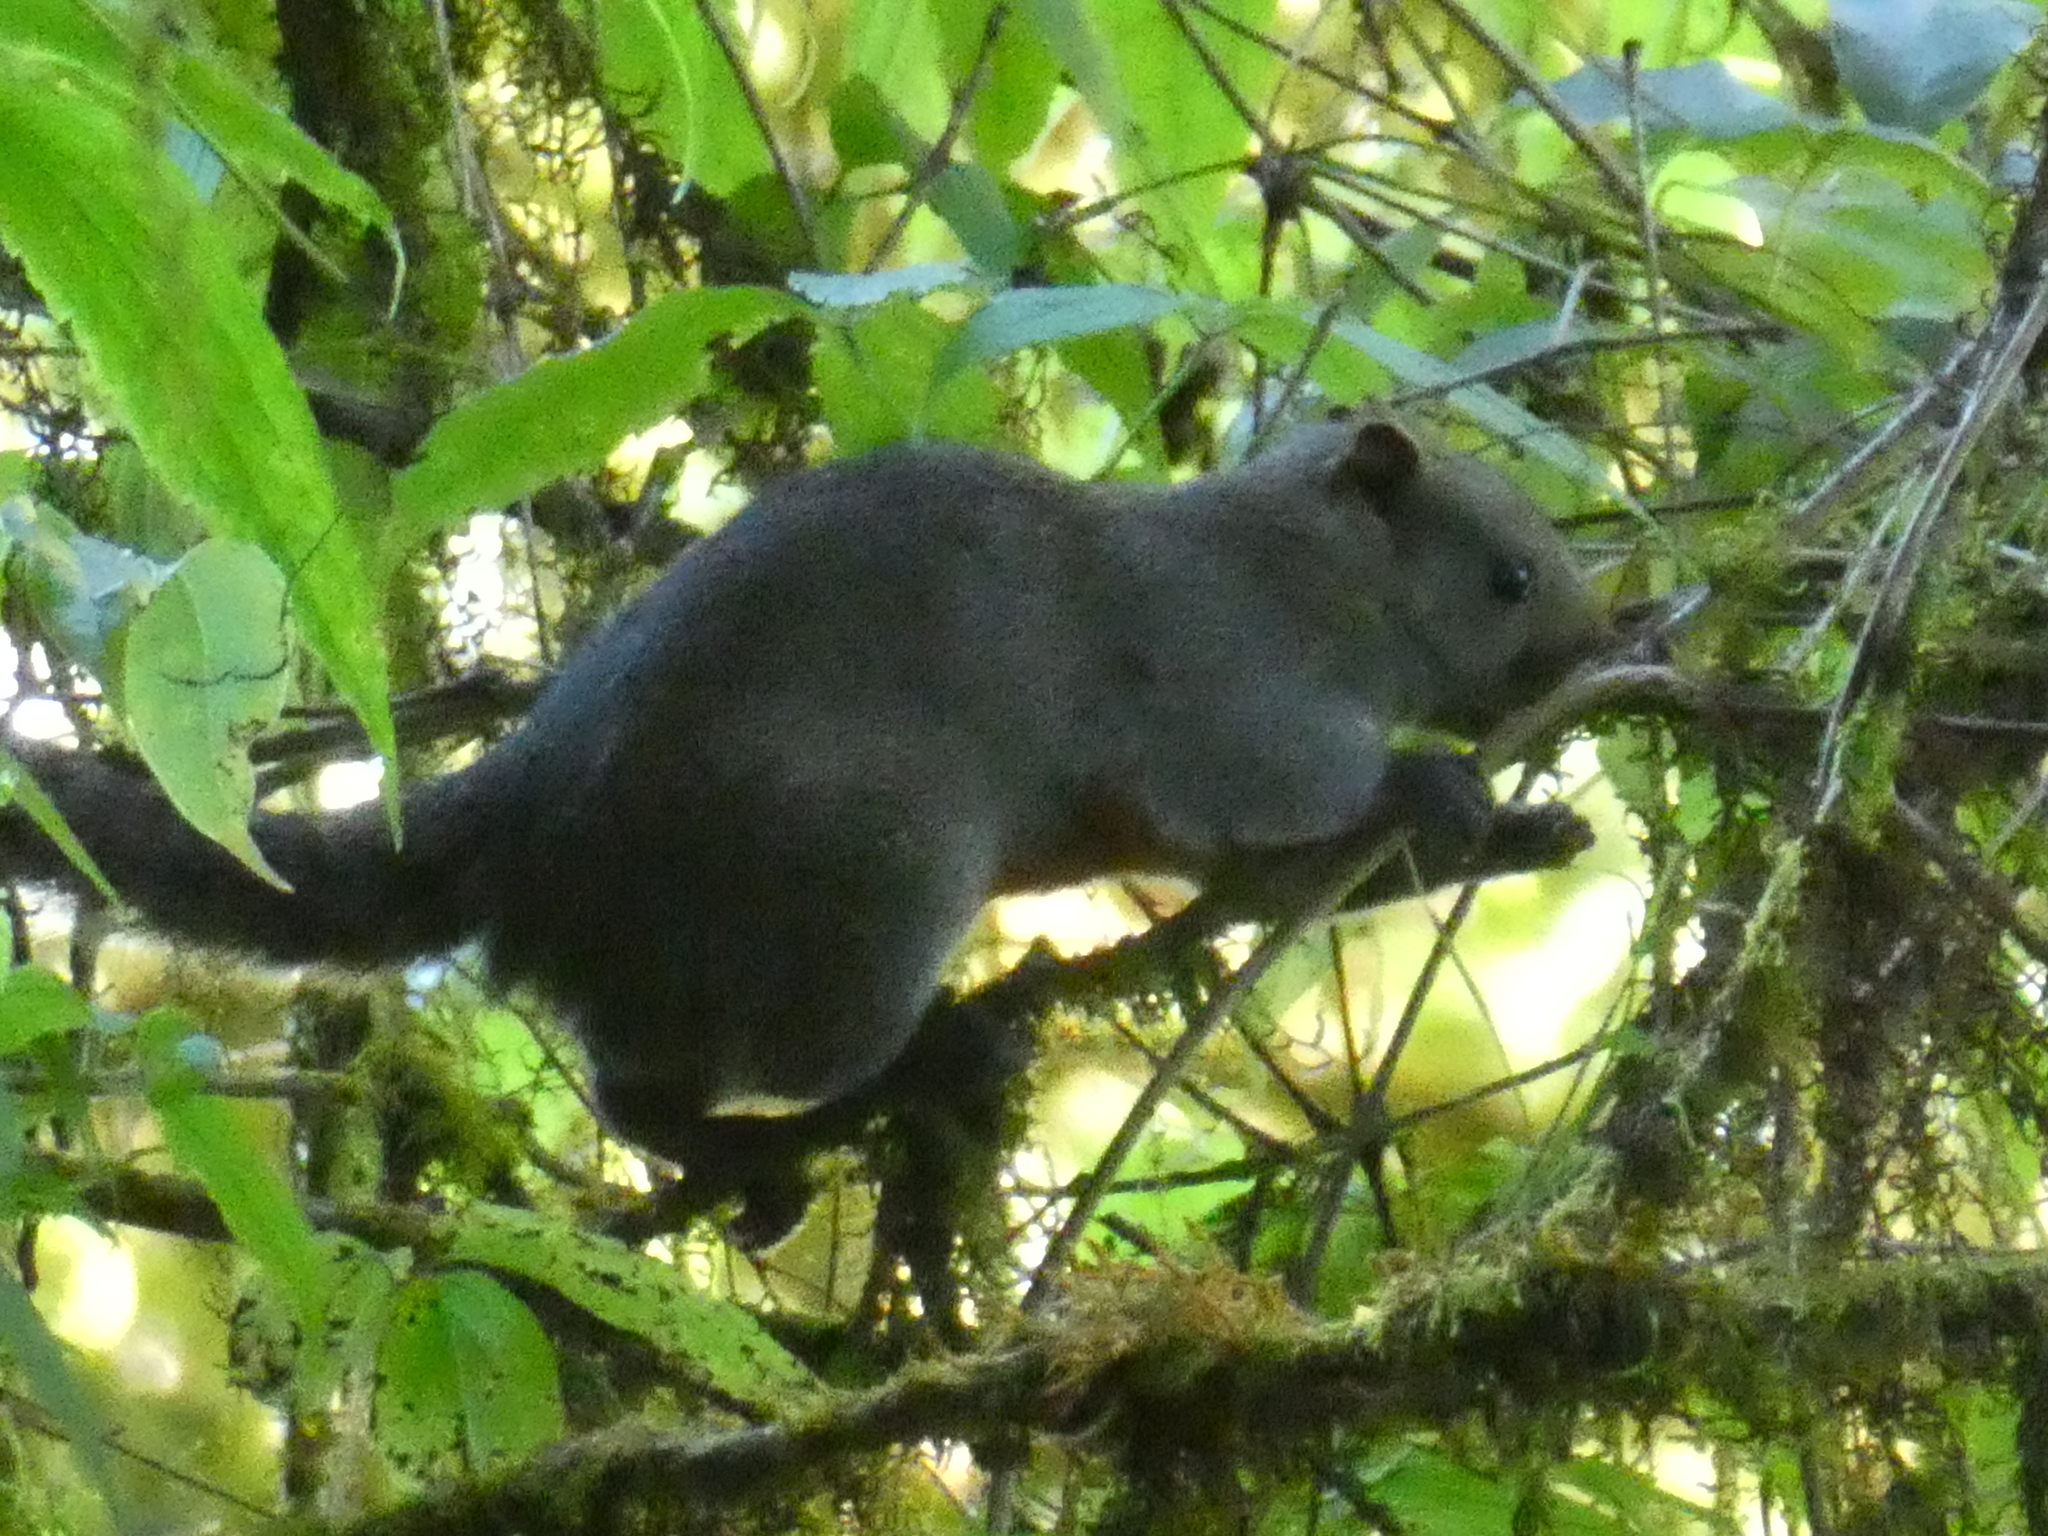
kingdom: Animalia
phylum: Chordata
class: Mammalia
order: Rodentia
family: Sciuridae
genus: Callosciurus
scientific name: Callosciurus erythraeus
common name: Pallas's squirrel
